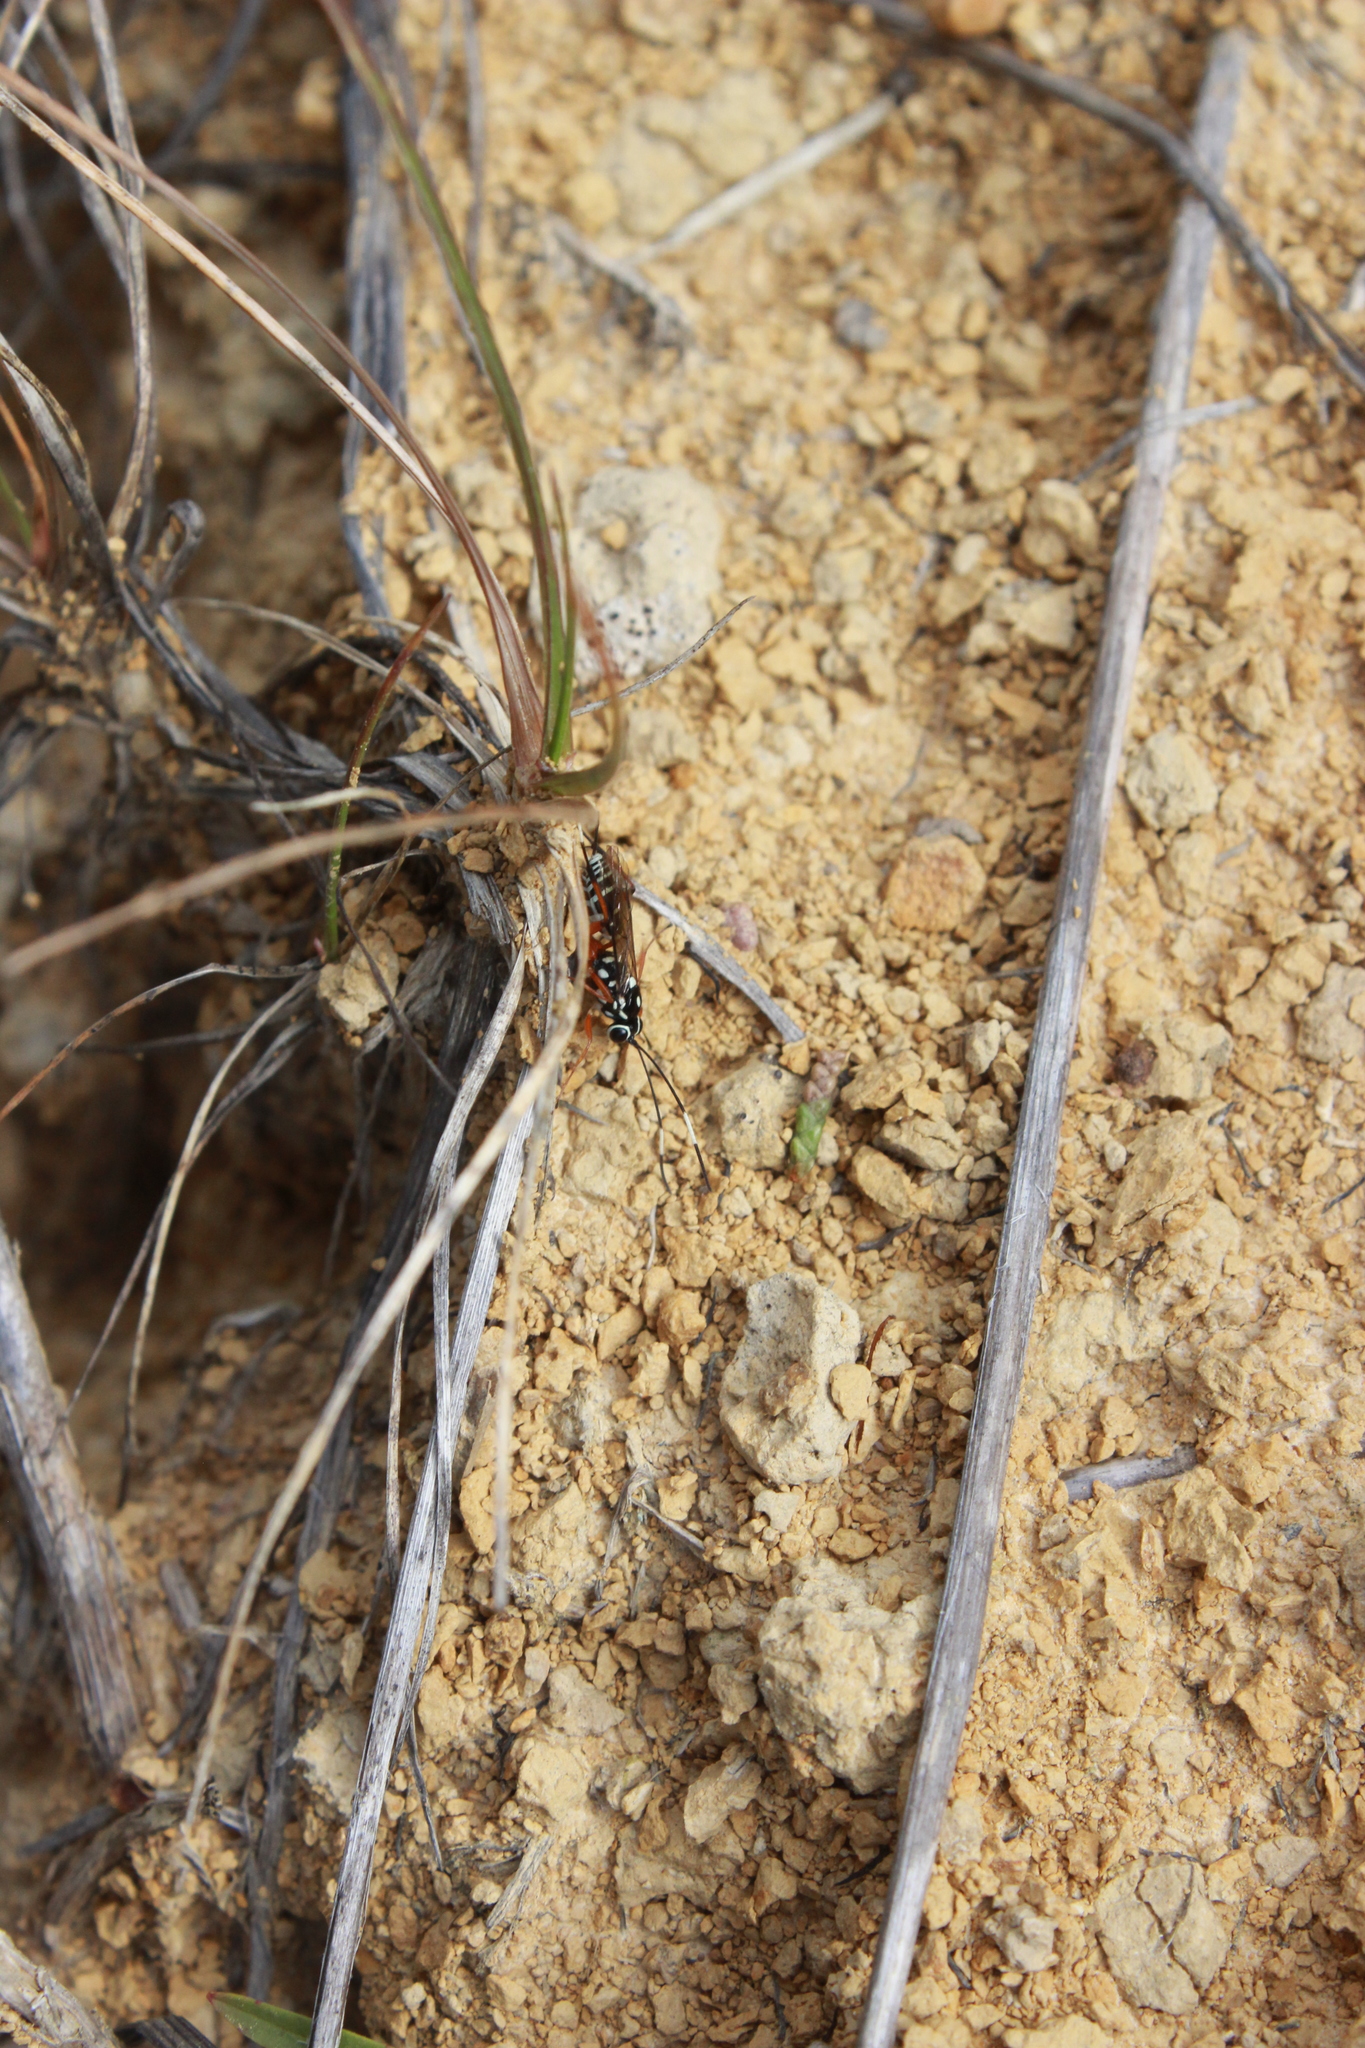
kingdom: Animalia
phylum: Arthropoda
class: Insecta
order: Hymenoptera
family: Ichneumonidae
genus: Glabridorsum
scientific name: Glabridorsum stokesii
